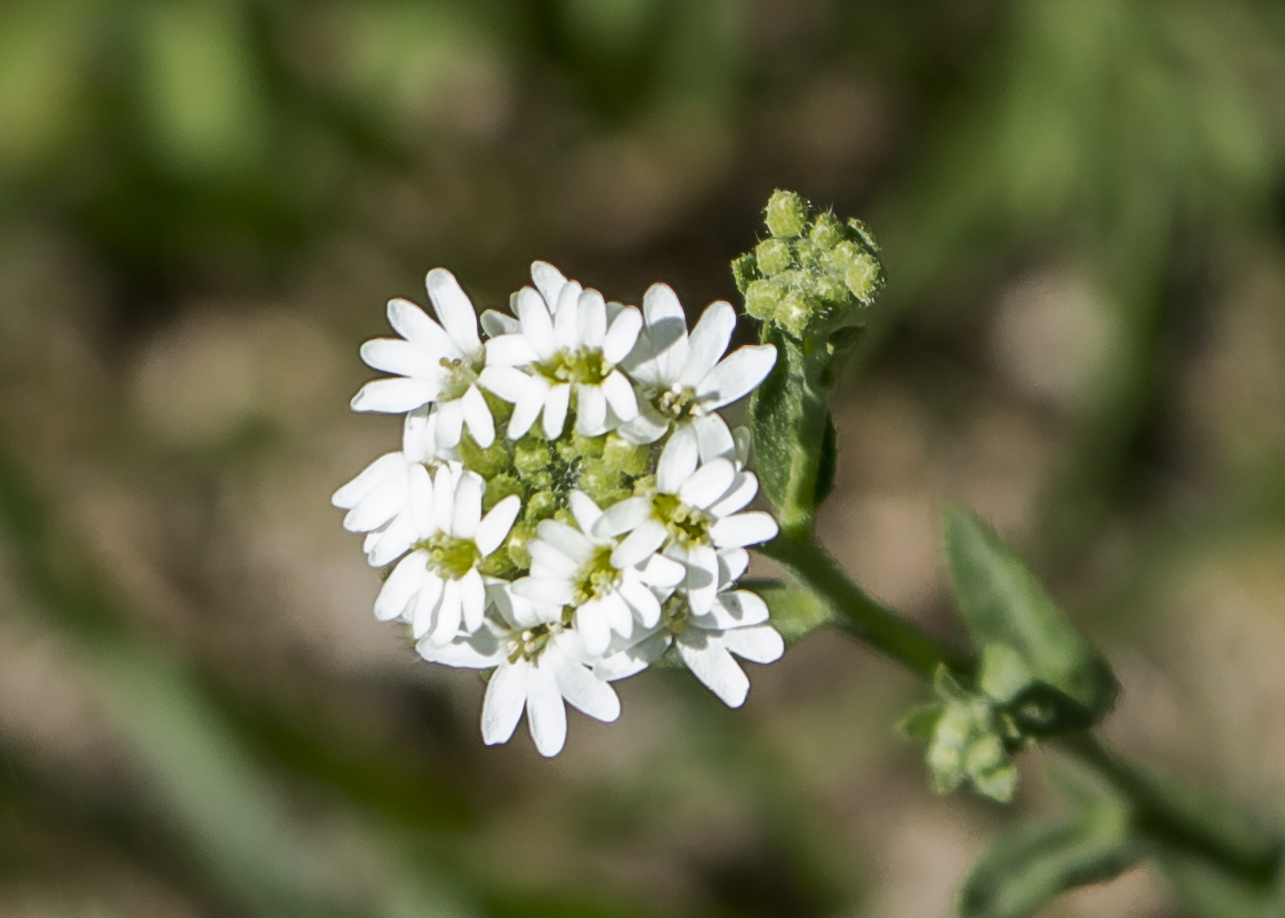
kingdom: Plantae
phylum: Tracheophyta
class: Magnoliopsida
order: Brassicales
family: Brassicaceae
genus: Berteroa
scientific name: Berteroa incana
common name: Hoary alison
